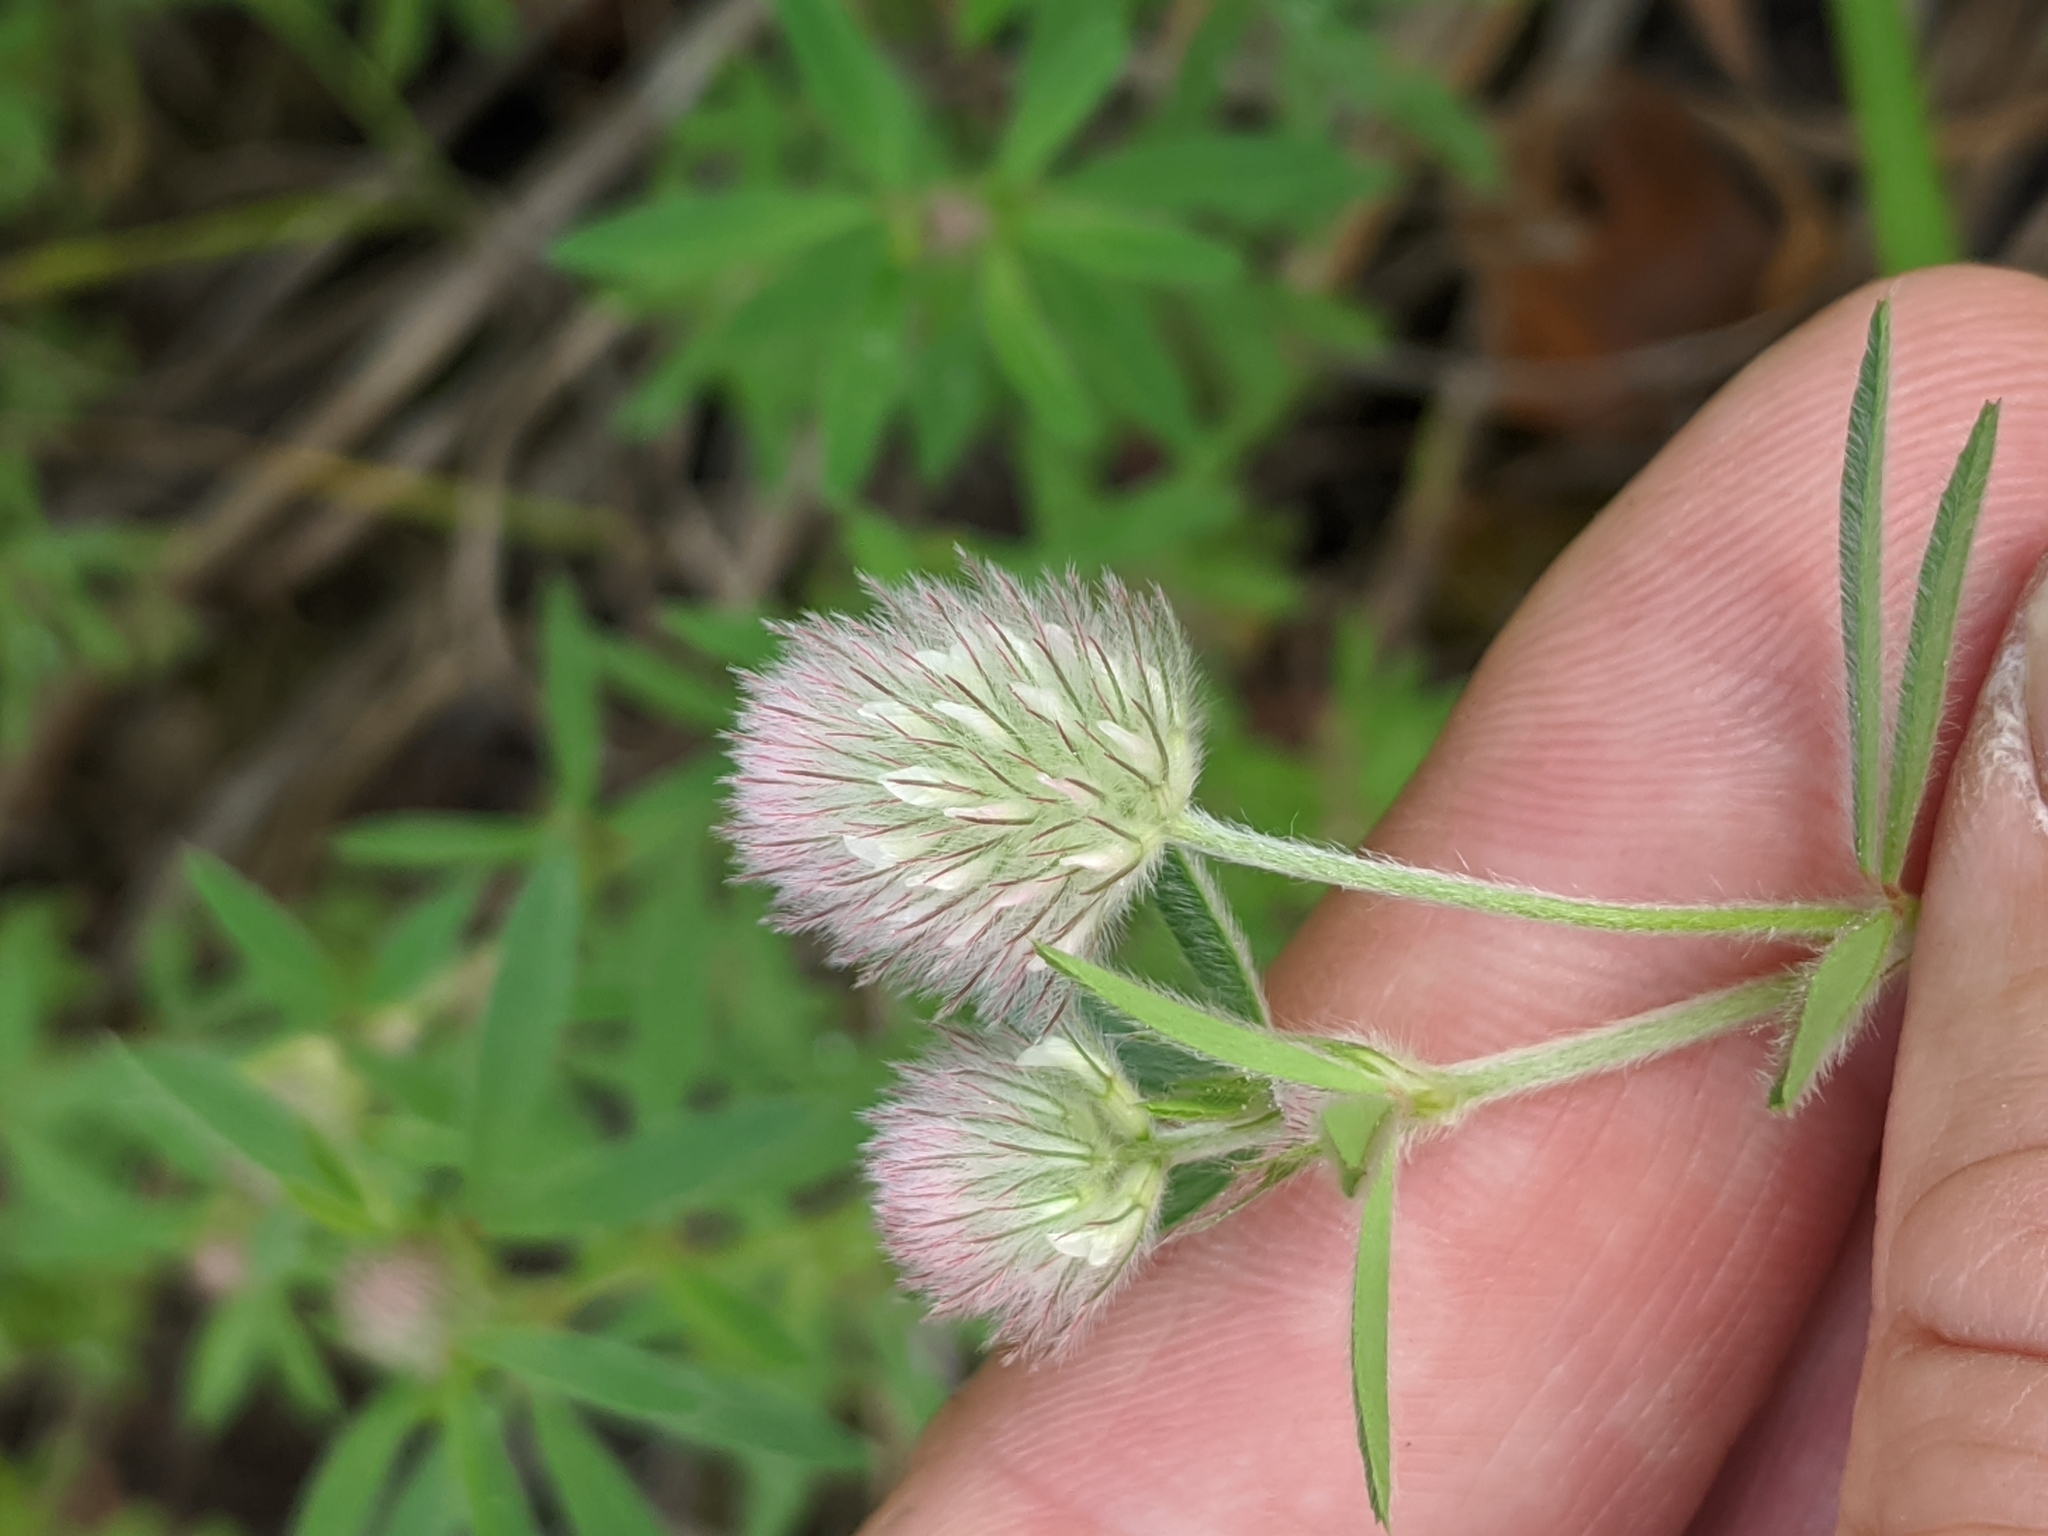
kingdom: Plantae
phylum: Tracheophyta
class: Magnoliopsida
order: Fabales
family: Fabaceae
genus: Trifolium
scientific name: Trifolium arvense
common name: Hare's-foot clover
